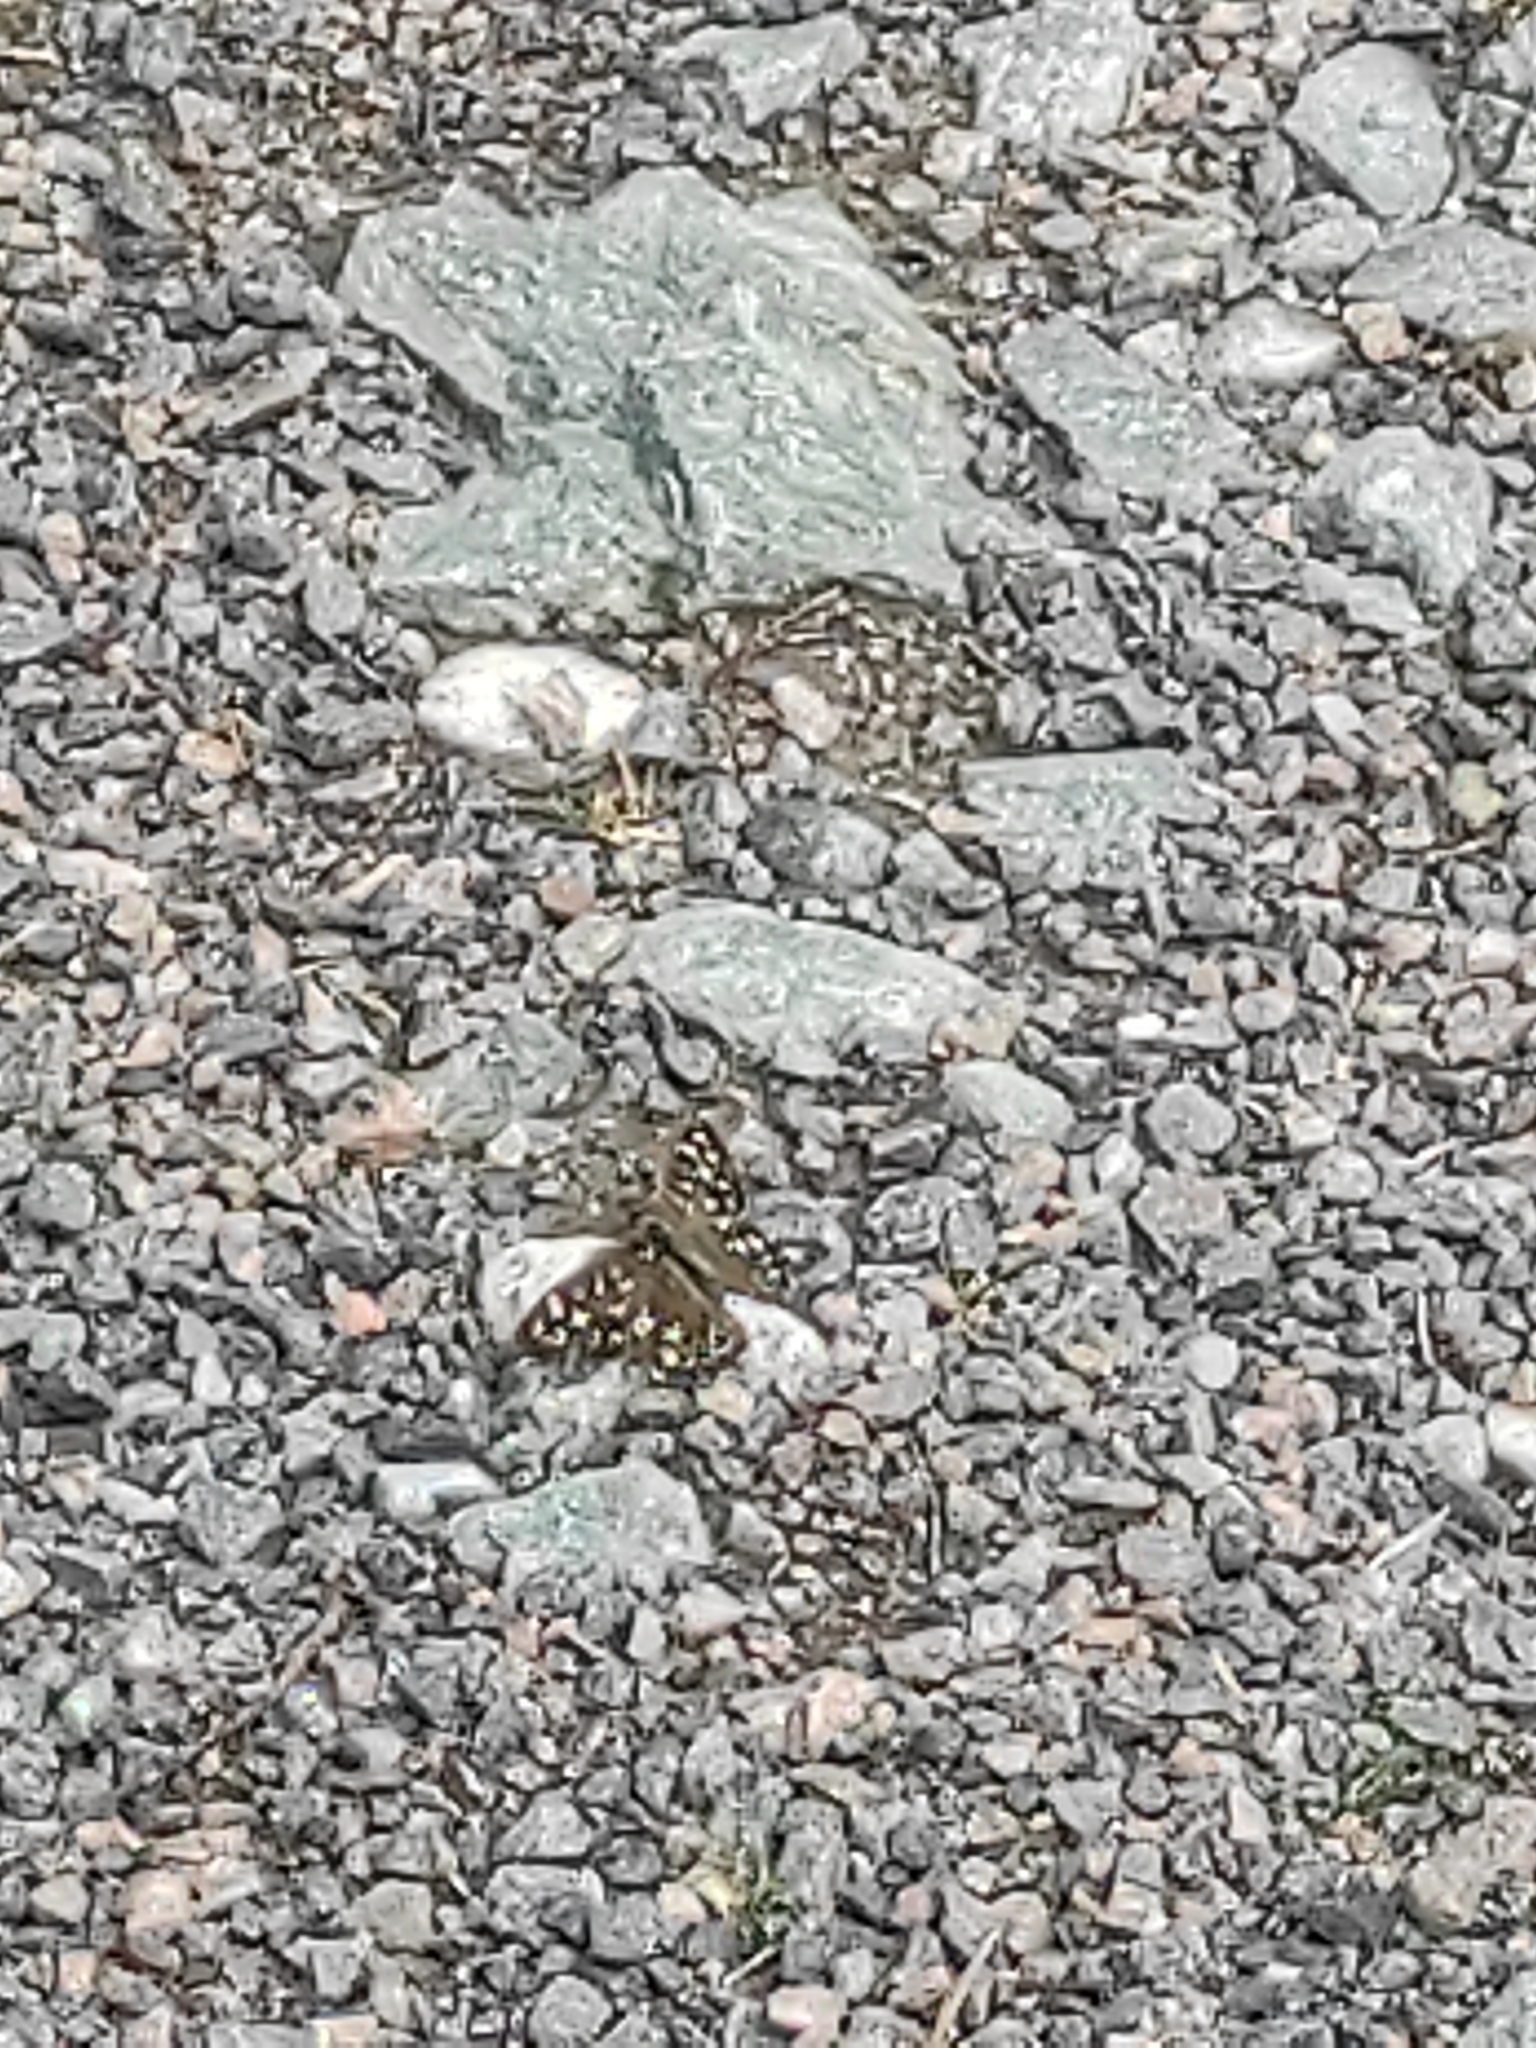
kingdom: Animalia
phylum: Arthropoda
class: Insecta
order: Lepidoptera
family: Nymphalidae
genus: Pararge
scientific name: Pararge aegeria
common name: Speckled wood
